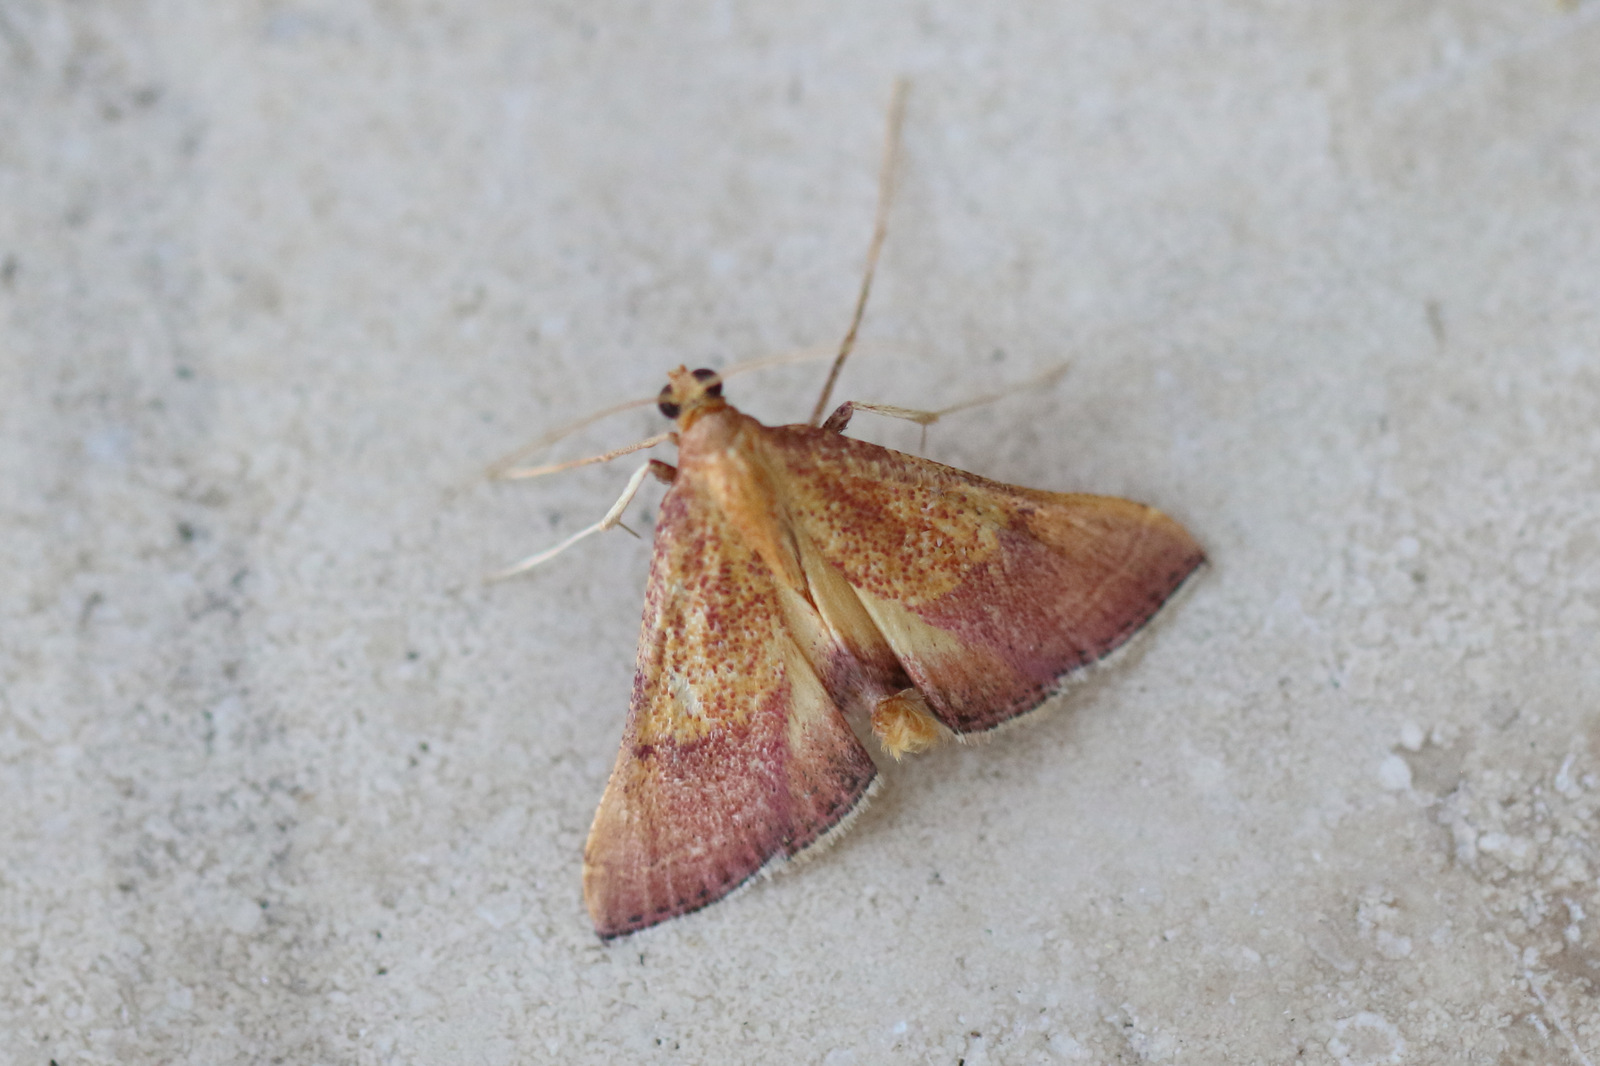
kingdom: Animalia
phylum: Arthropoda
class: Insecta
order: Lepidoptera
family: Pyralidae
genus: Endotricha
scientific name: Endotricha pyrosalis
